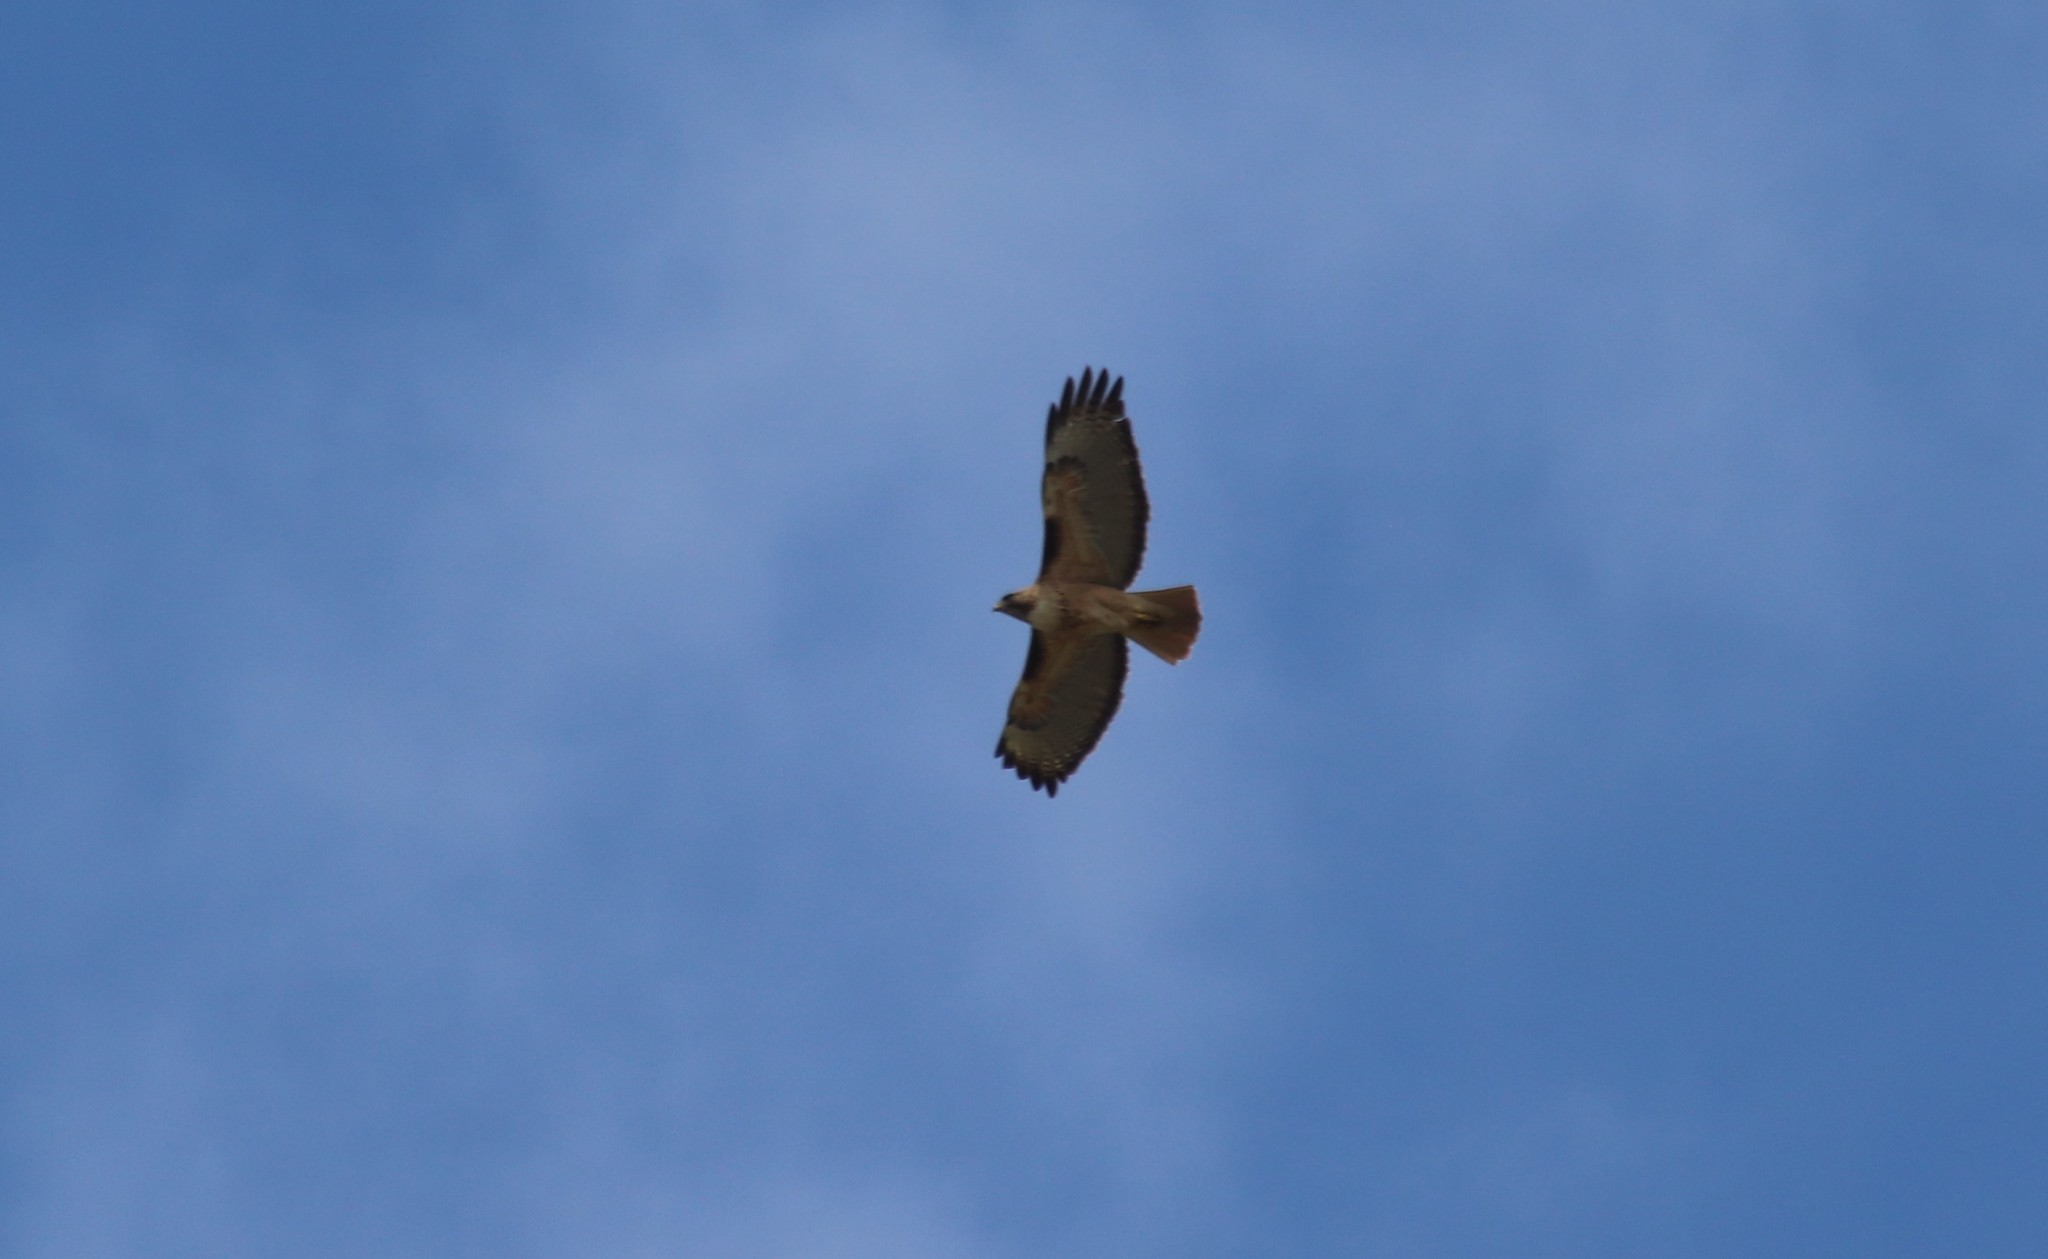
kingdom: Animalia
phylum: Chordata
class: Aves
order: Accipitriformes
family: Accipitridae
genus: Buteo
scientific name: Buteo jamaicensis
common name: Red-tailed hawk
